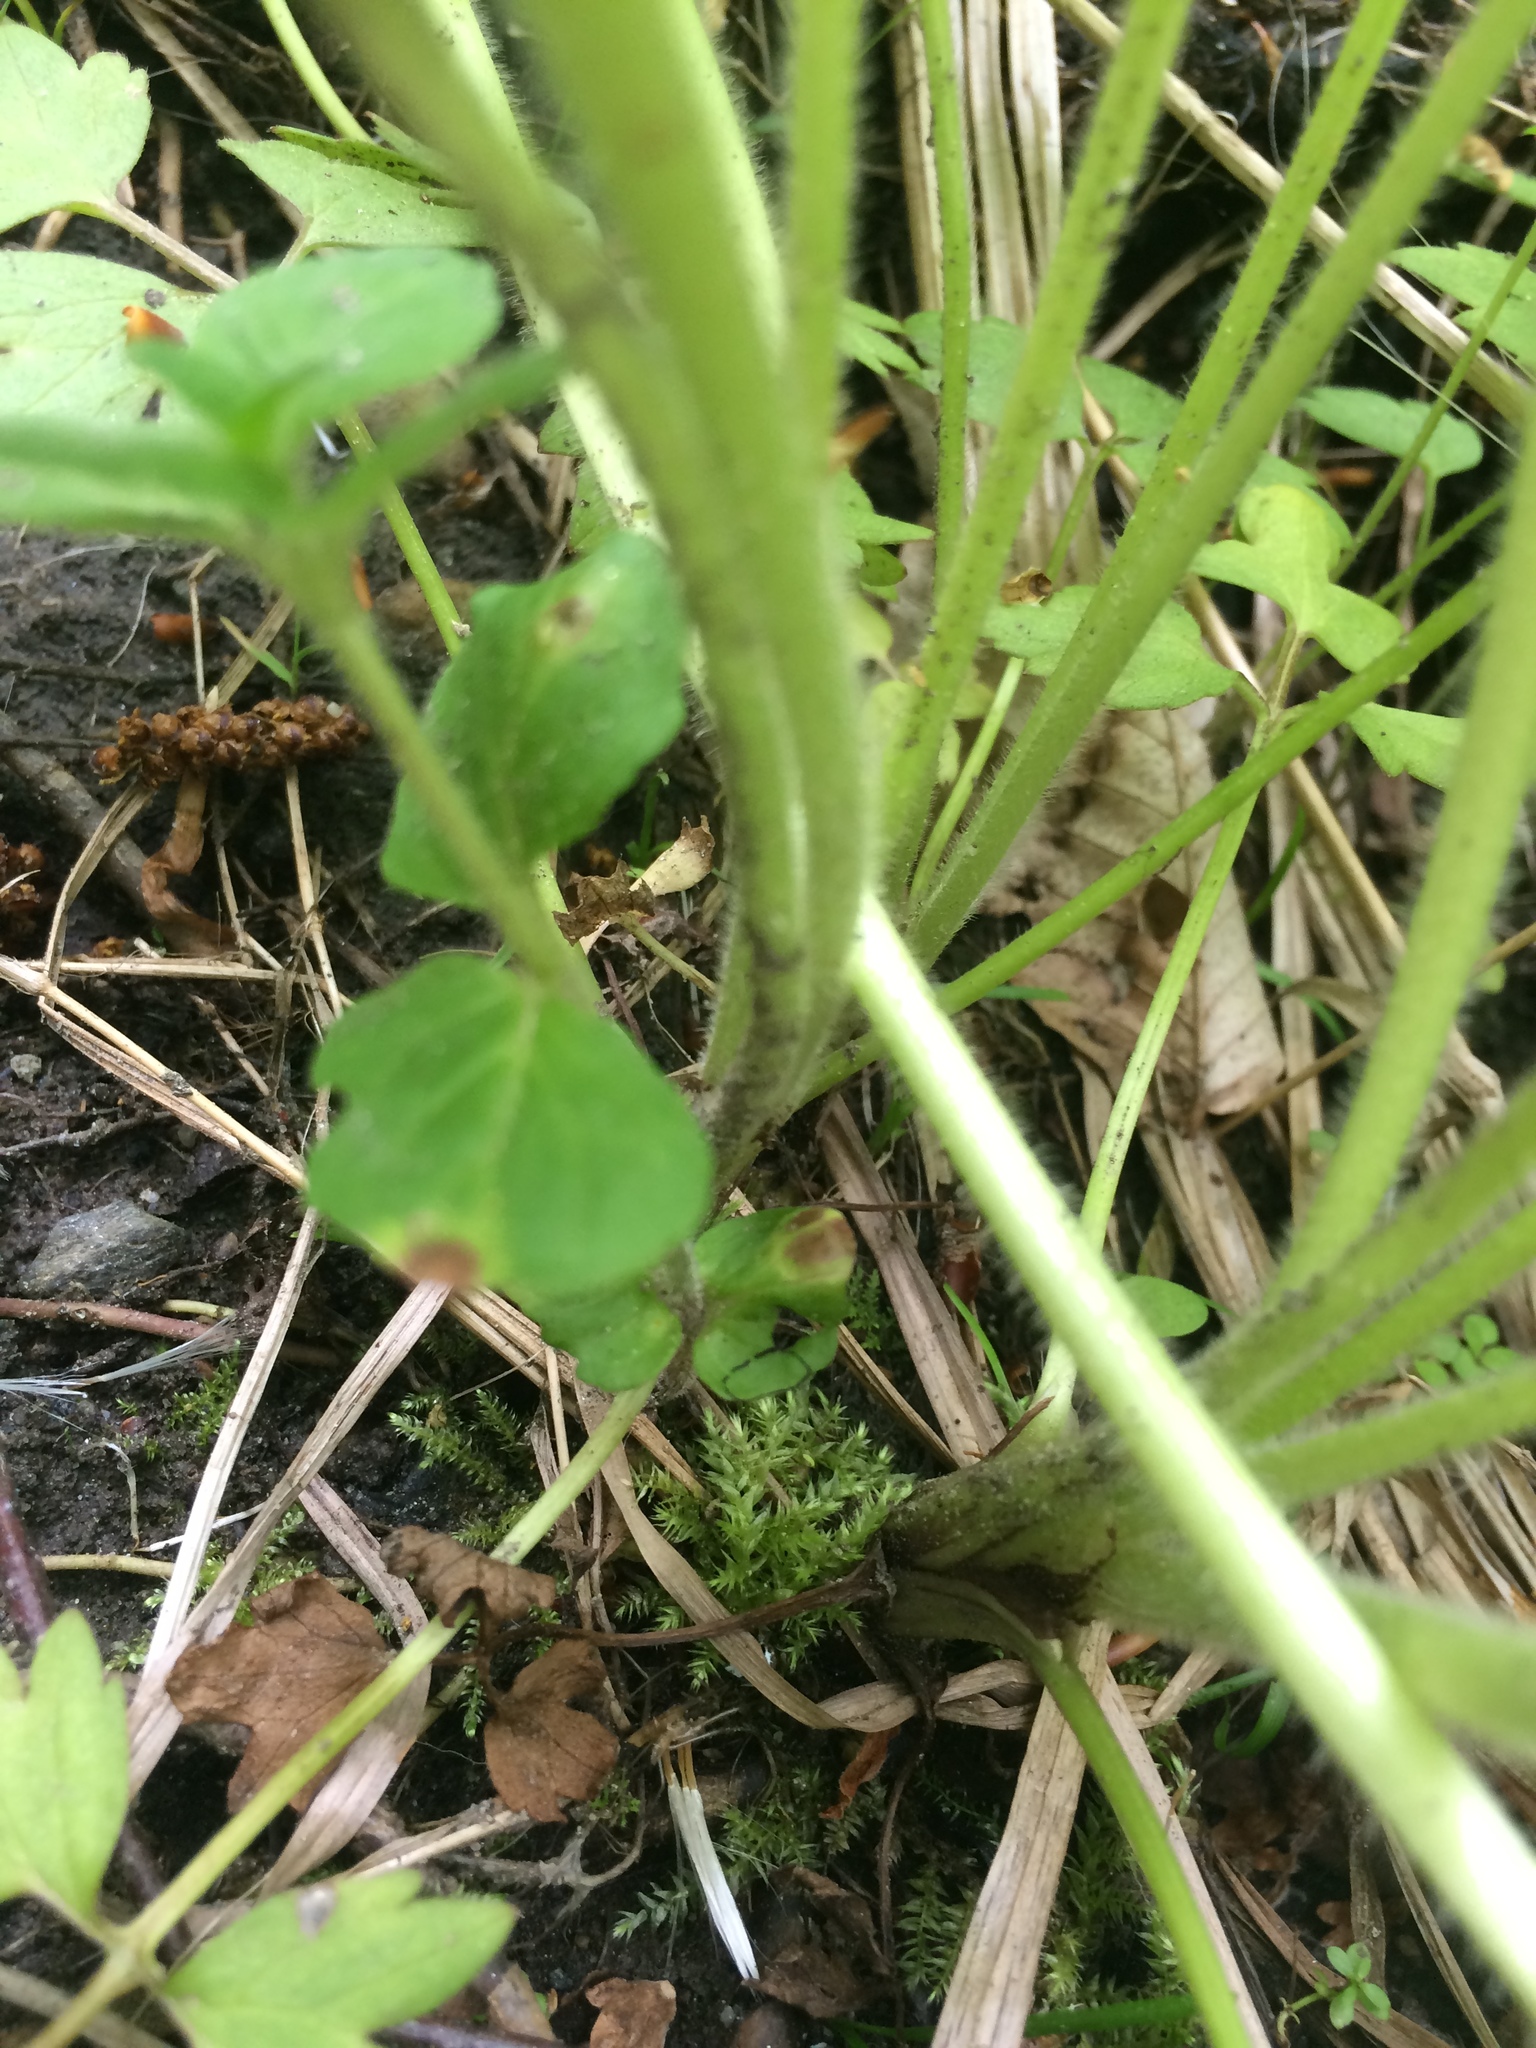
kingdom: Plantae
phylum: Tracheophyta
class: Magnoliopsida
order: Ranunculales
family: Ranunculaceae
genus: Ranunculus
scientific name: Ranunculus hispidus
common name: Bristly buttercup
